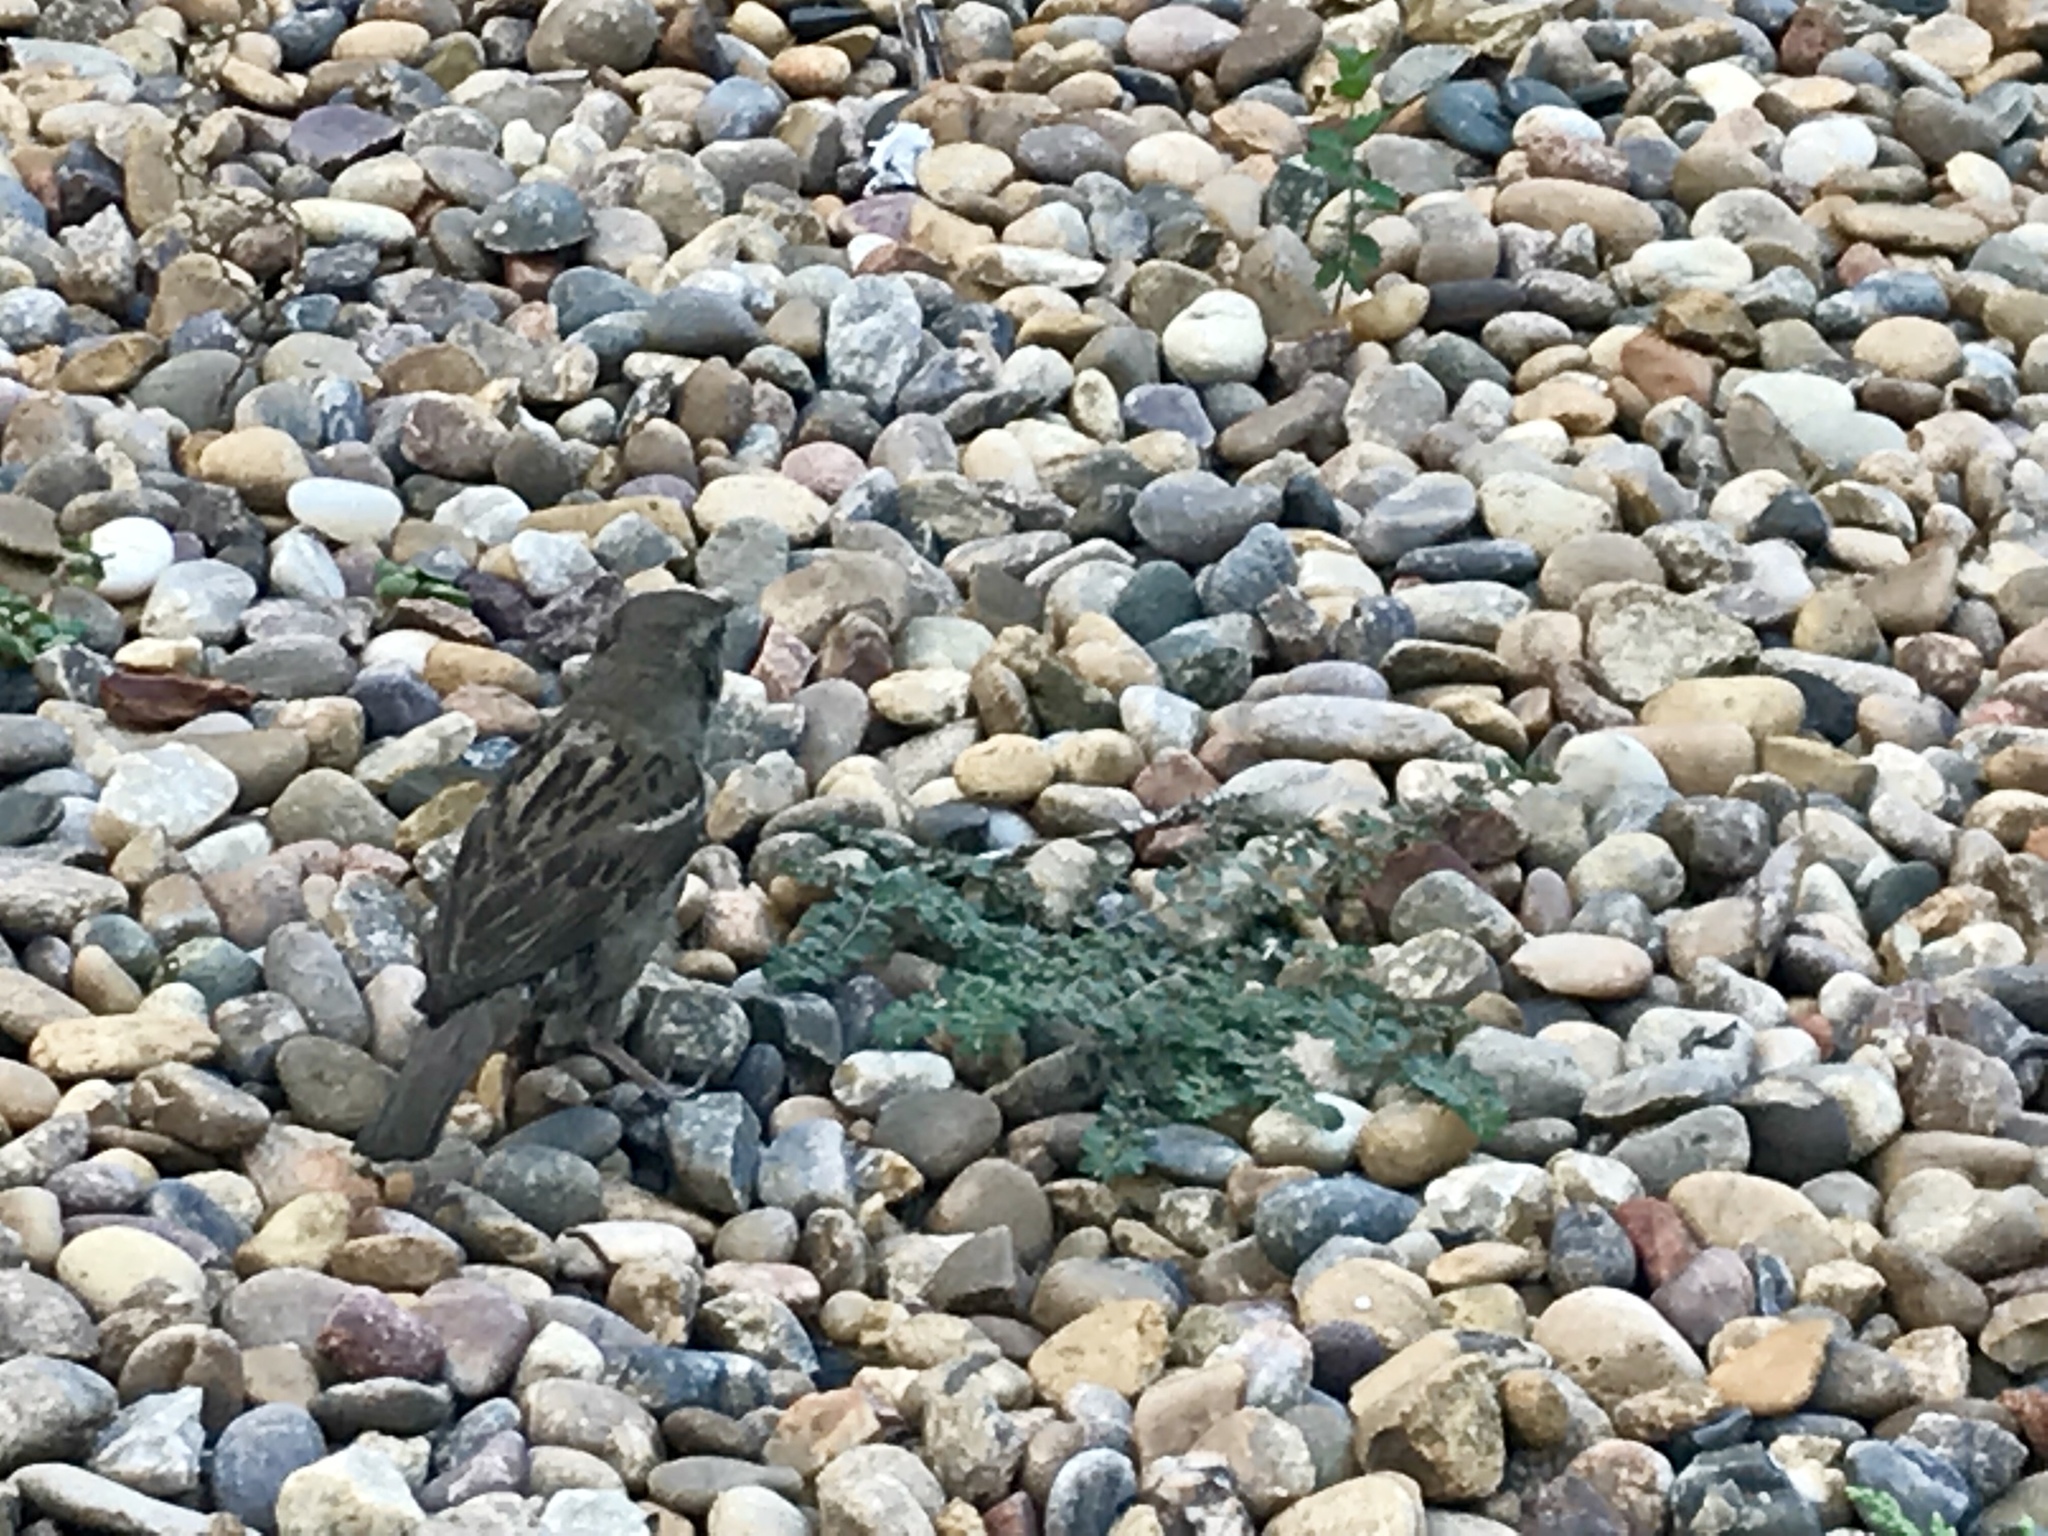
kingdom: Animalia
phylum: Chordata
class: Aves
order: Passeriformes
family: Passeridae
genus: Passer
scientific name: Passer domesticus
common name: House sparrow
